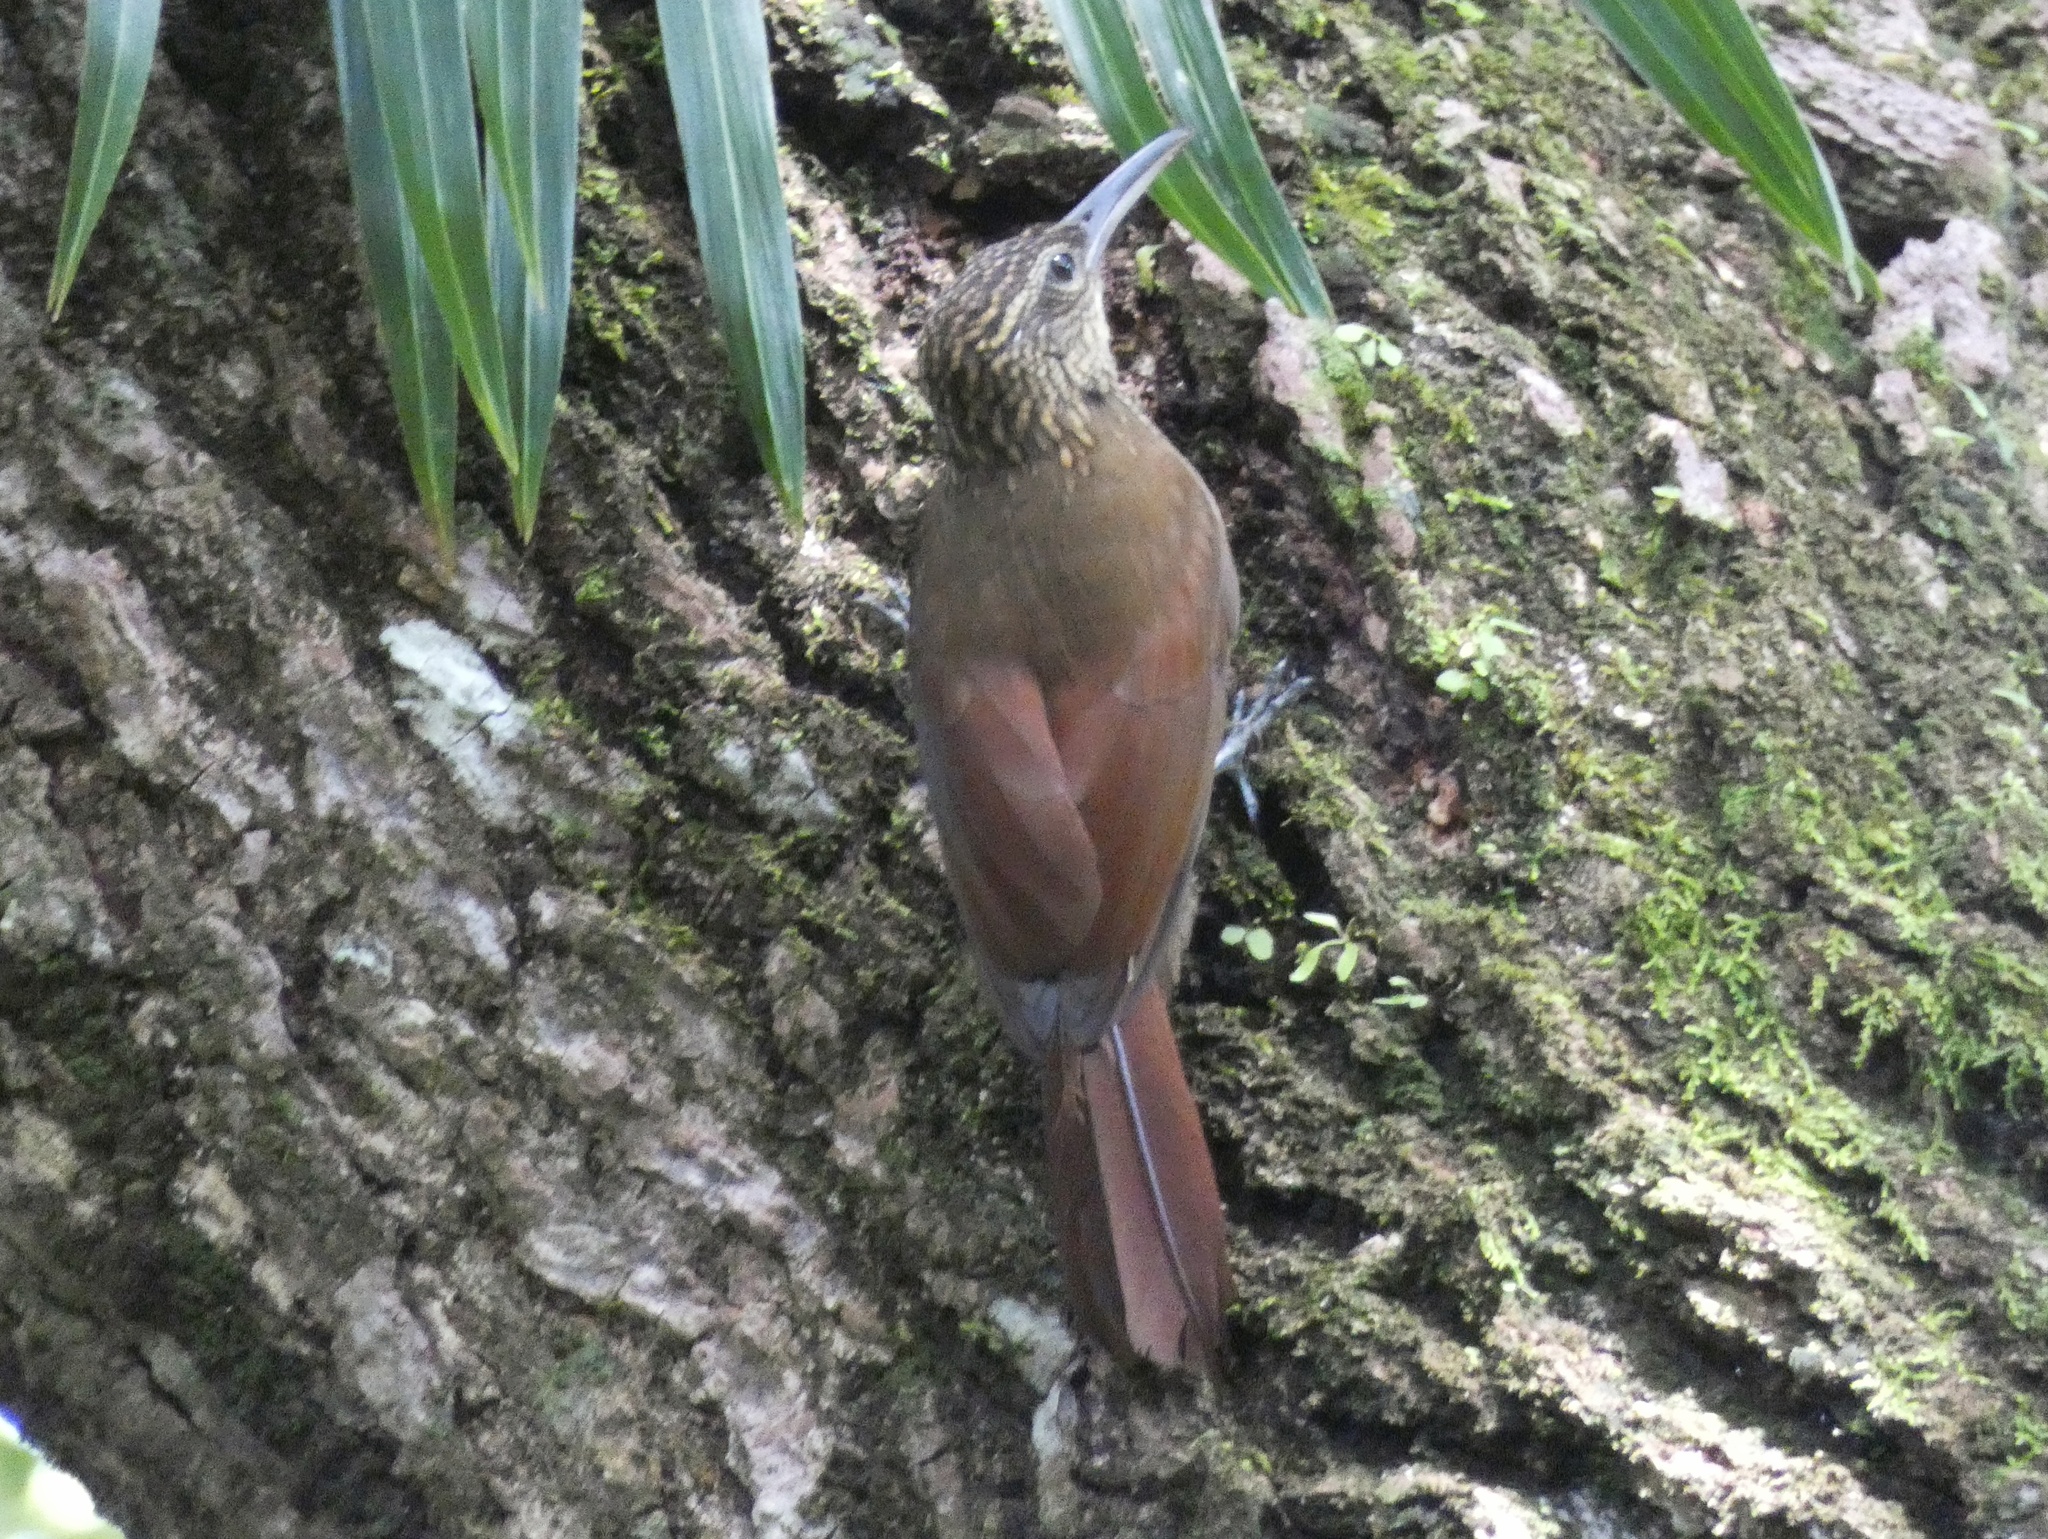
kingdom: Animalia
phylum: Chordata
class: Aves
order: Passeriformes
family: Furnariidae
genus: Xiphorhynchus
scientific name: Xiphorhynchus susurrans
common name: Cocoa woodcreeper
